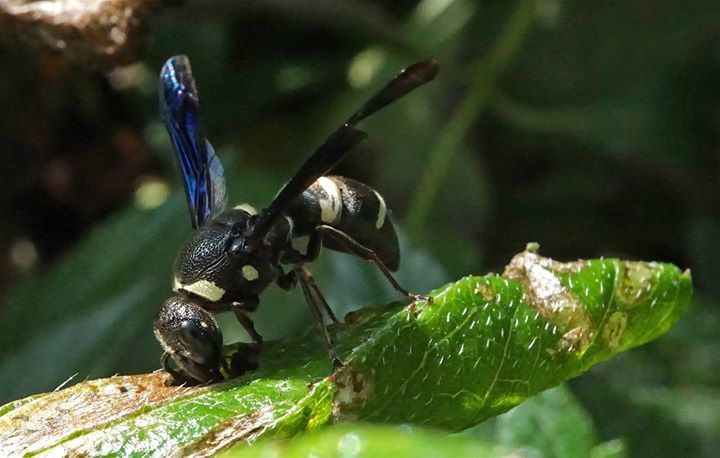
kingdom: Animalia
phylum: Arthropoda
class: Insecta
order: Hymenoptera
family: Eumenidae
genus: Euodynerus
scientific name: Euodynerus megaera
